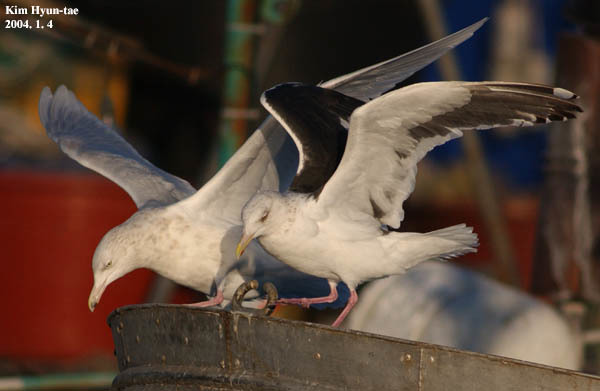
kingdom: Animalia
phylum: Chordata
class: Aves
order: Charadriiformes
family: Laridae
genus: Larus
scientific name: Larus hyperboreus
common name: Glaucous gull
